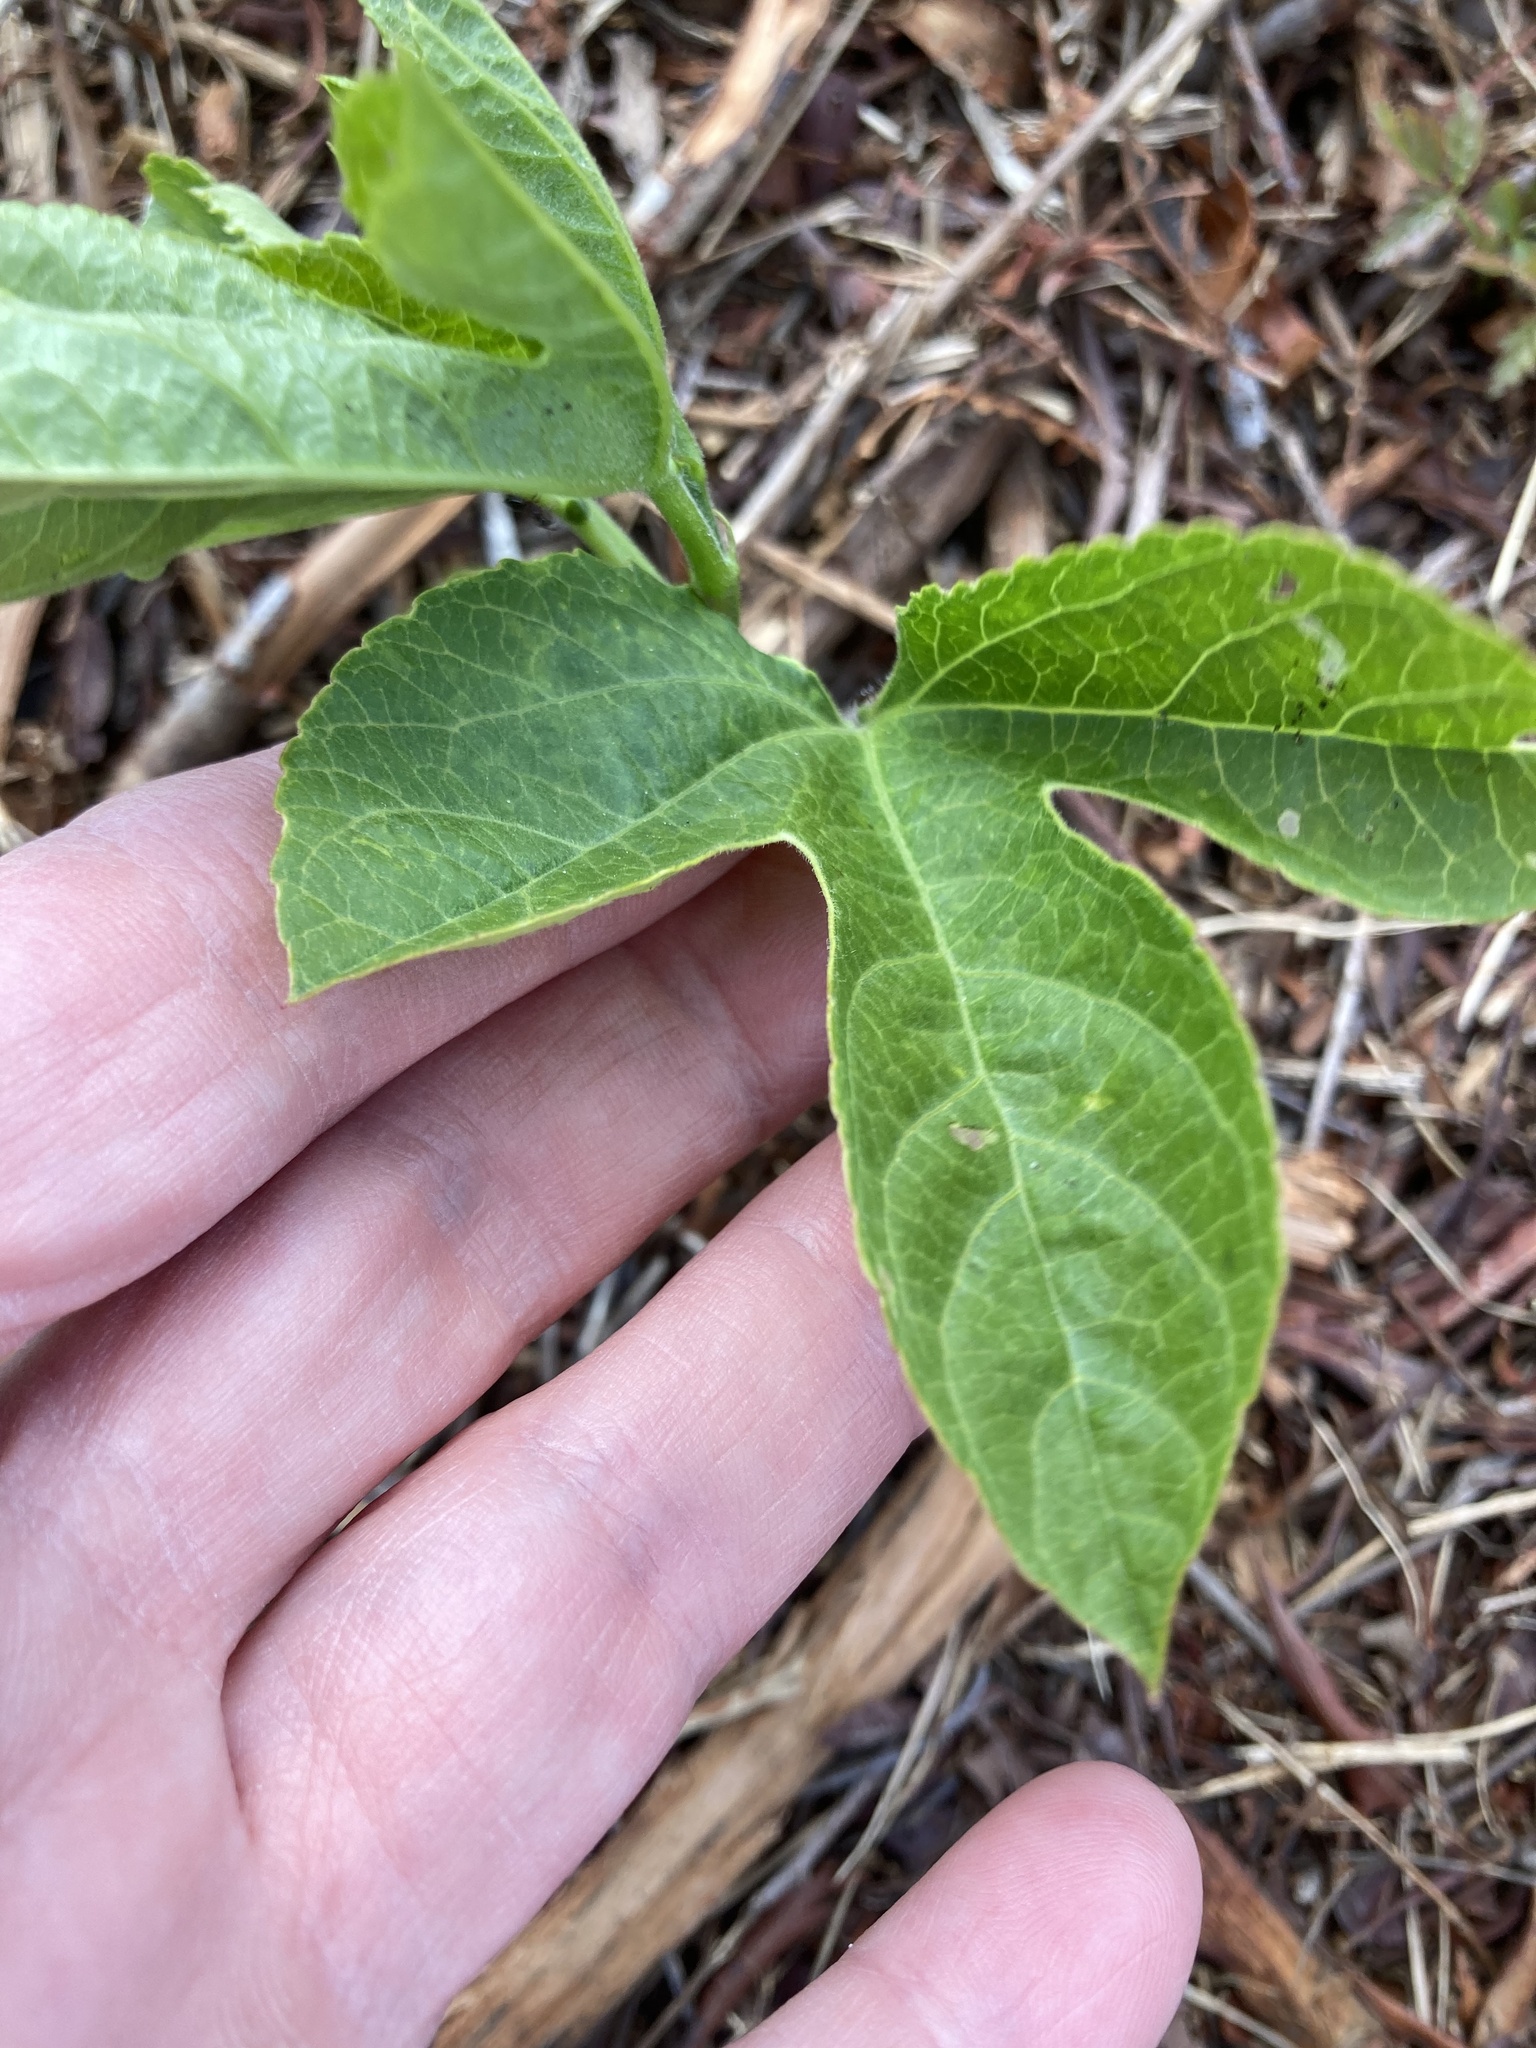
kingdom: Plantae
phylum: Tracheophyta
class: Magnoliopsida
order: Malpighiales
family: Passifloraceae
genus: Passiflora
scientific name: Passiflora incarnata
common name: Apricot-vine
